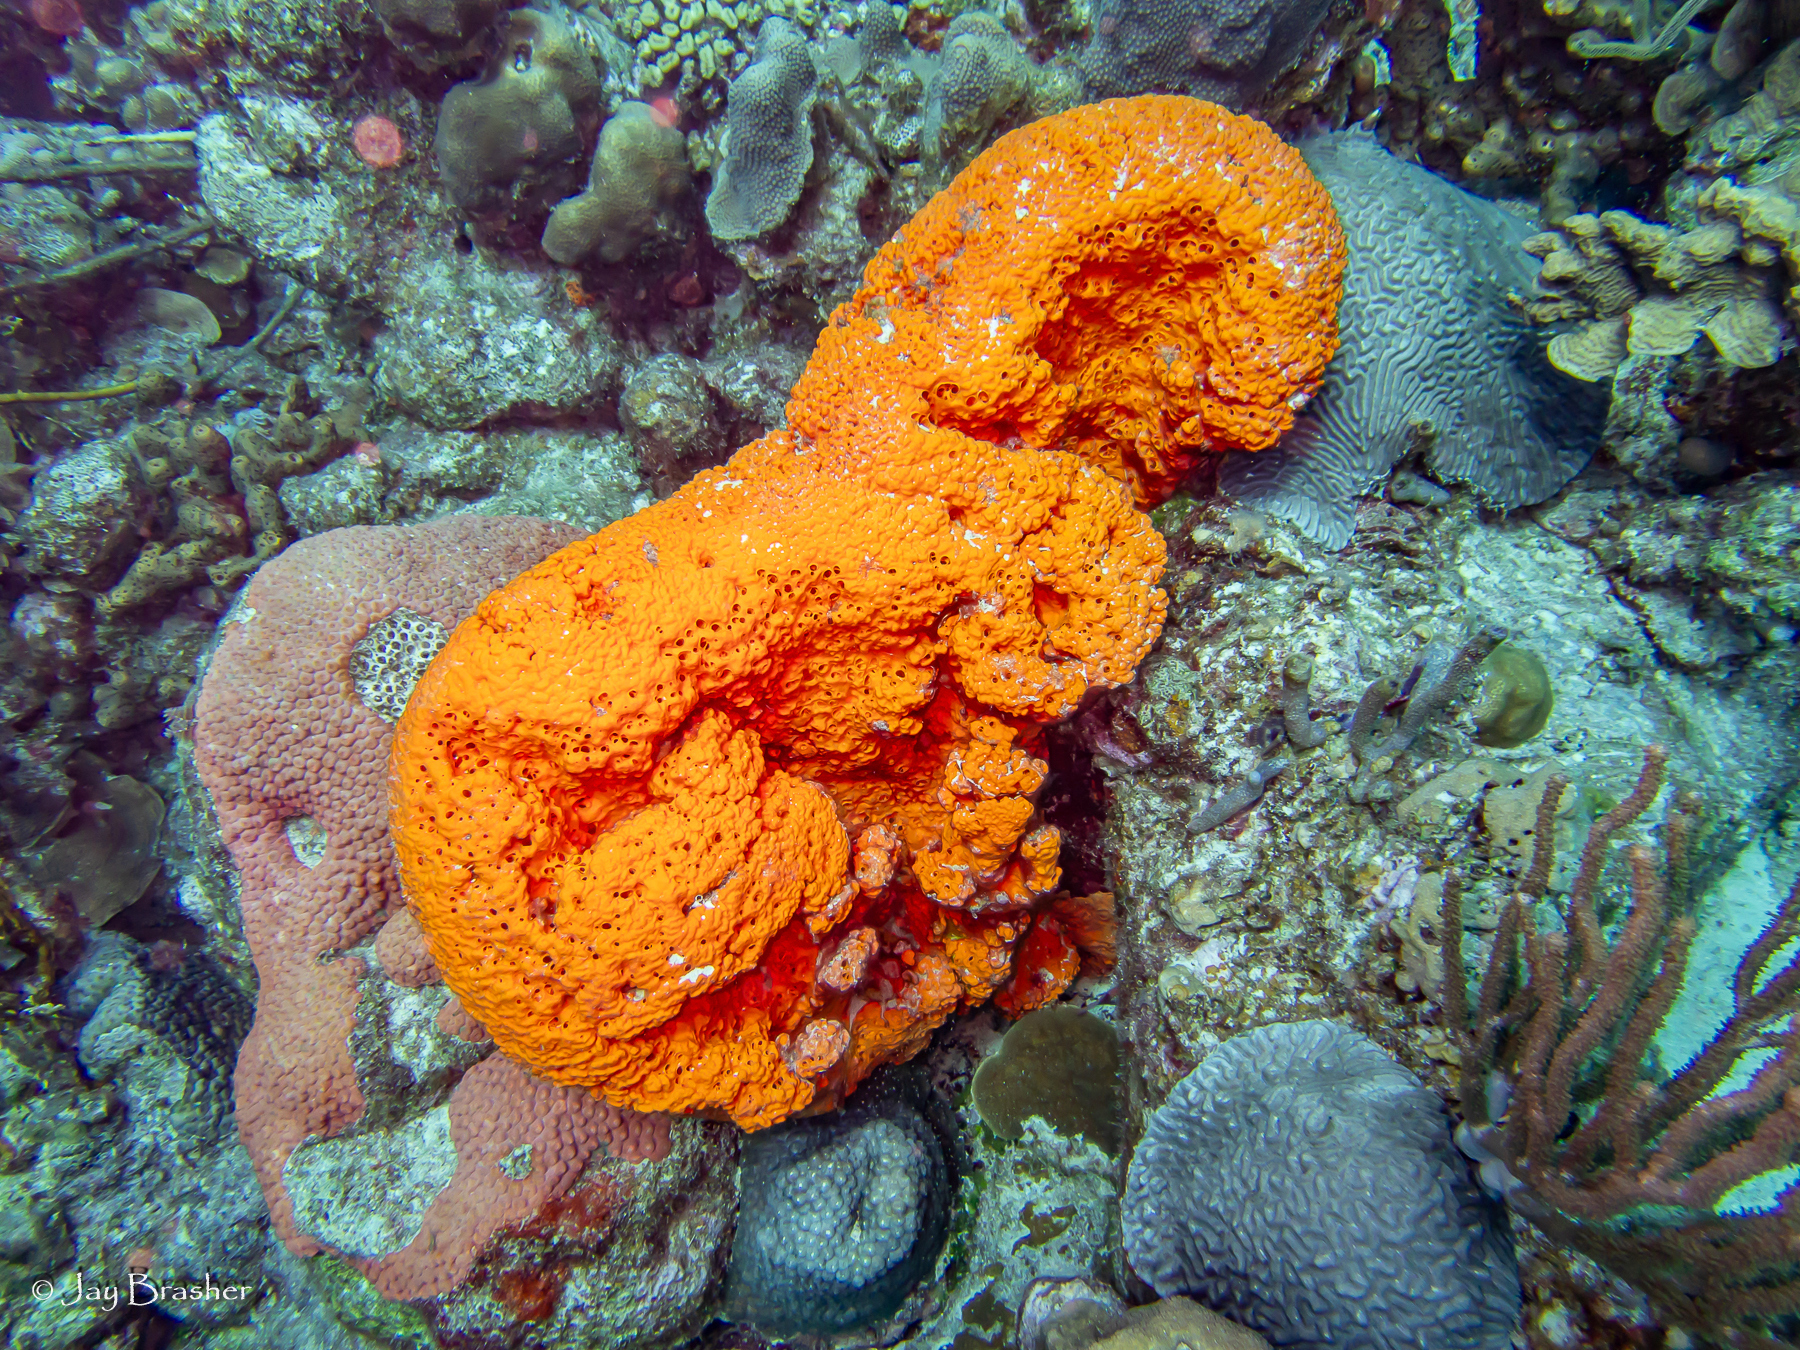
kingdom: Animalia
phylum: Cnidaria
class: Anthozoa
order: Scleractinia
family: Montastraeidae
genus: Montastraea
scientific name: Montastraea cavernosa
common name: Great star coral
